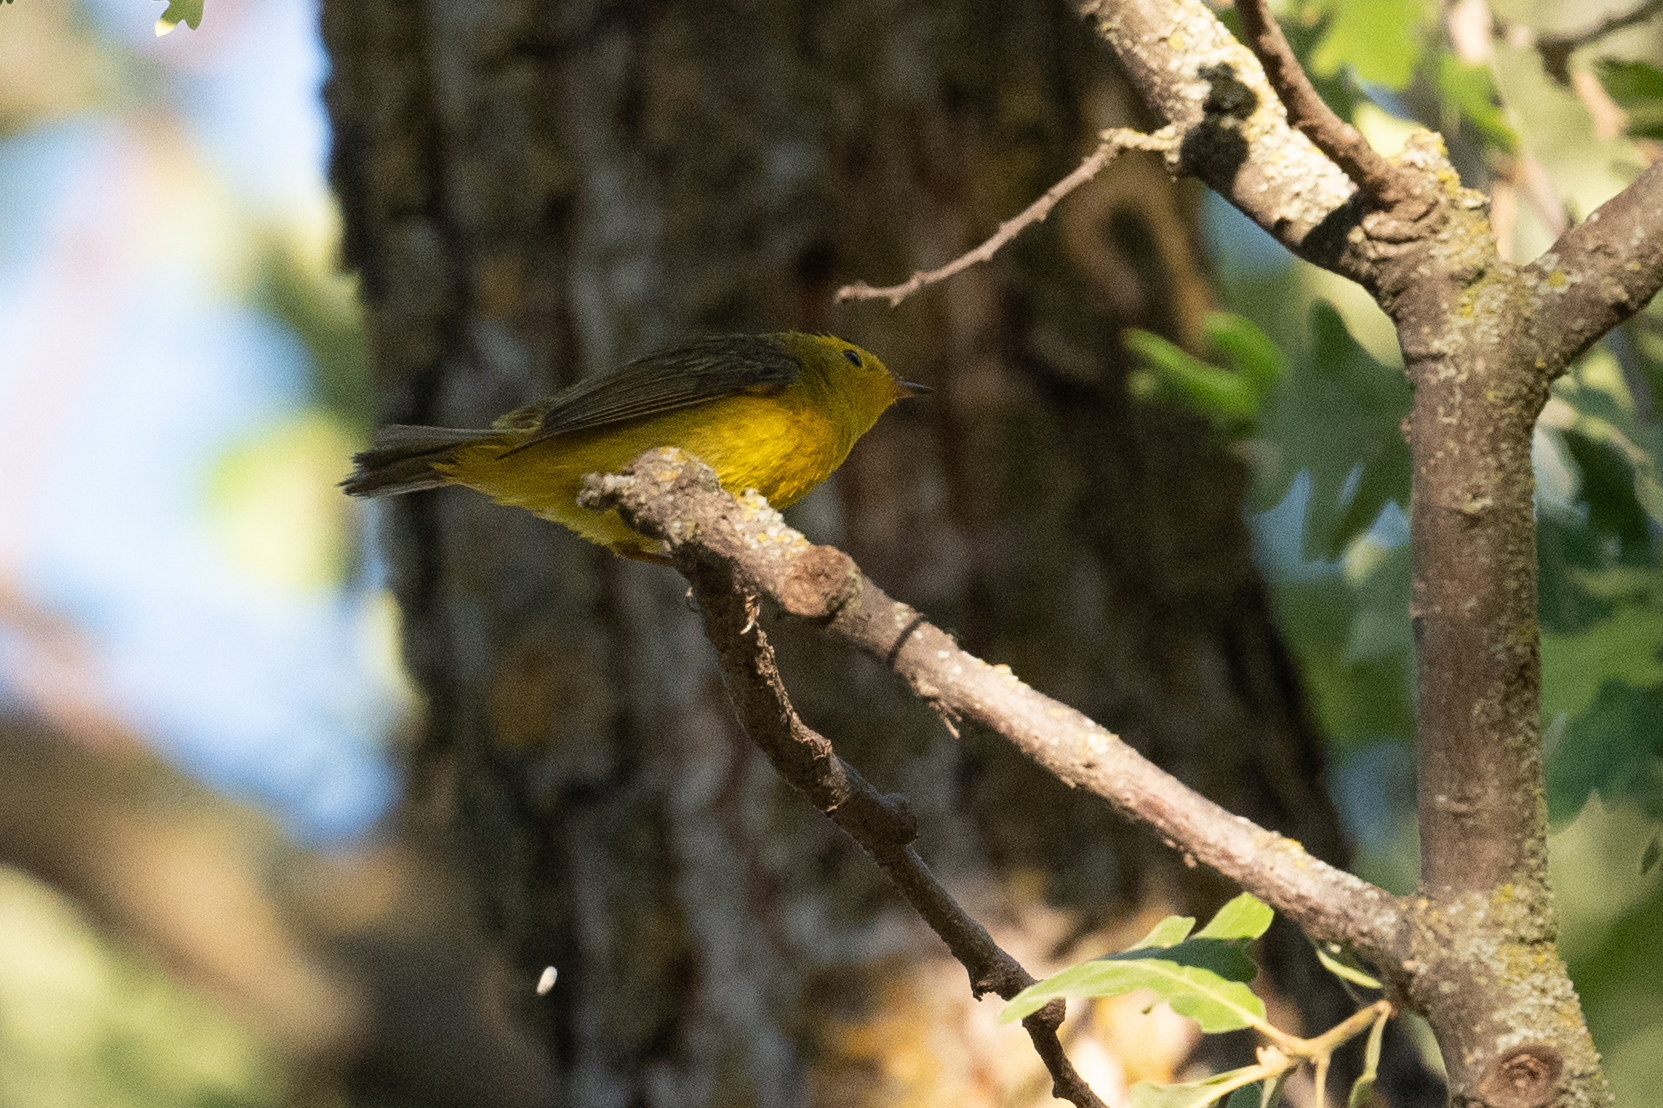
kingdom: Animalia
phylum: Chordata
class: Aves
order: Passeriformes
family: Parulidae
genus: Cardellina
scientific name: Cardellina pusilla
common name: Wilson's warbler
